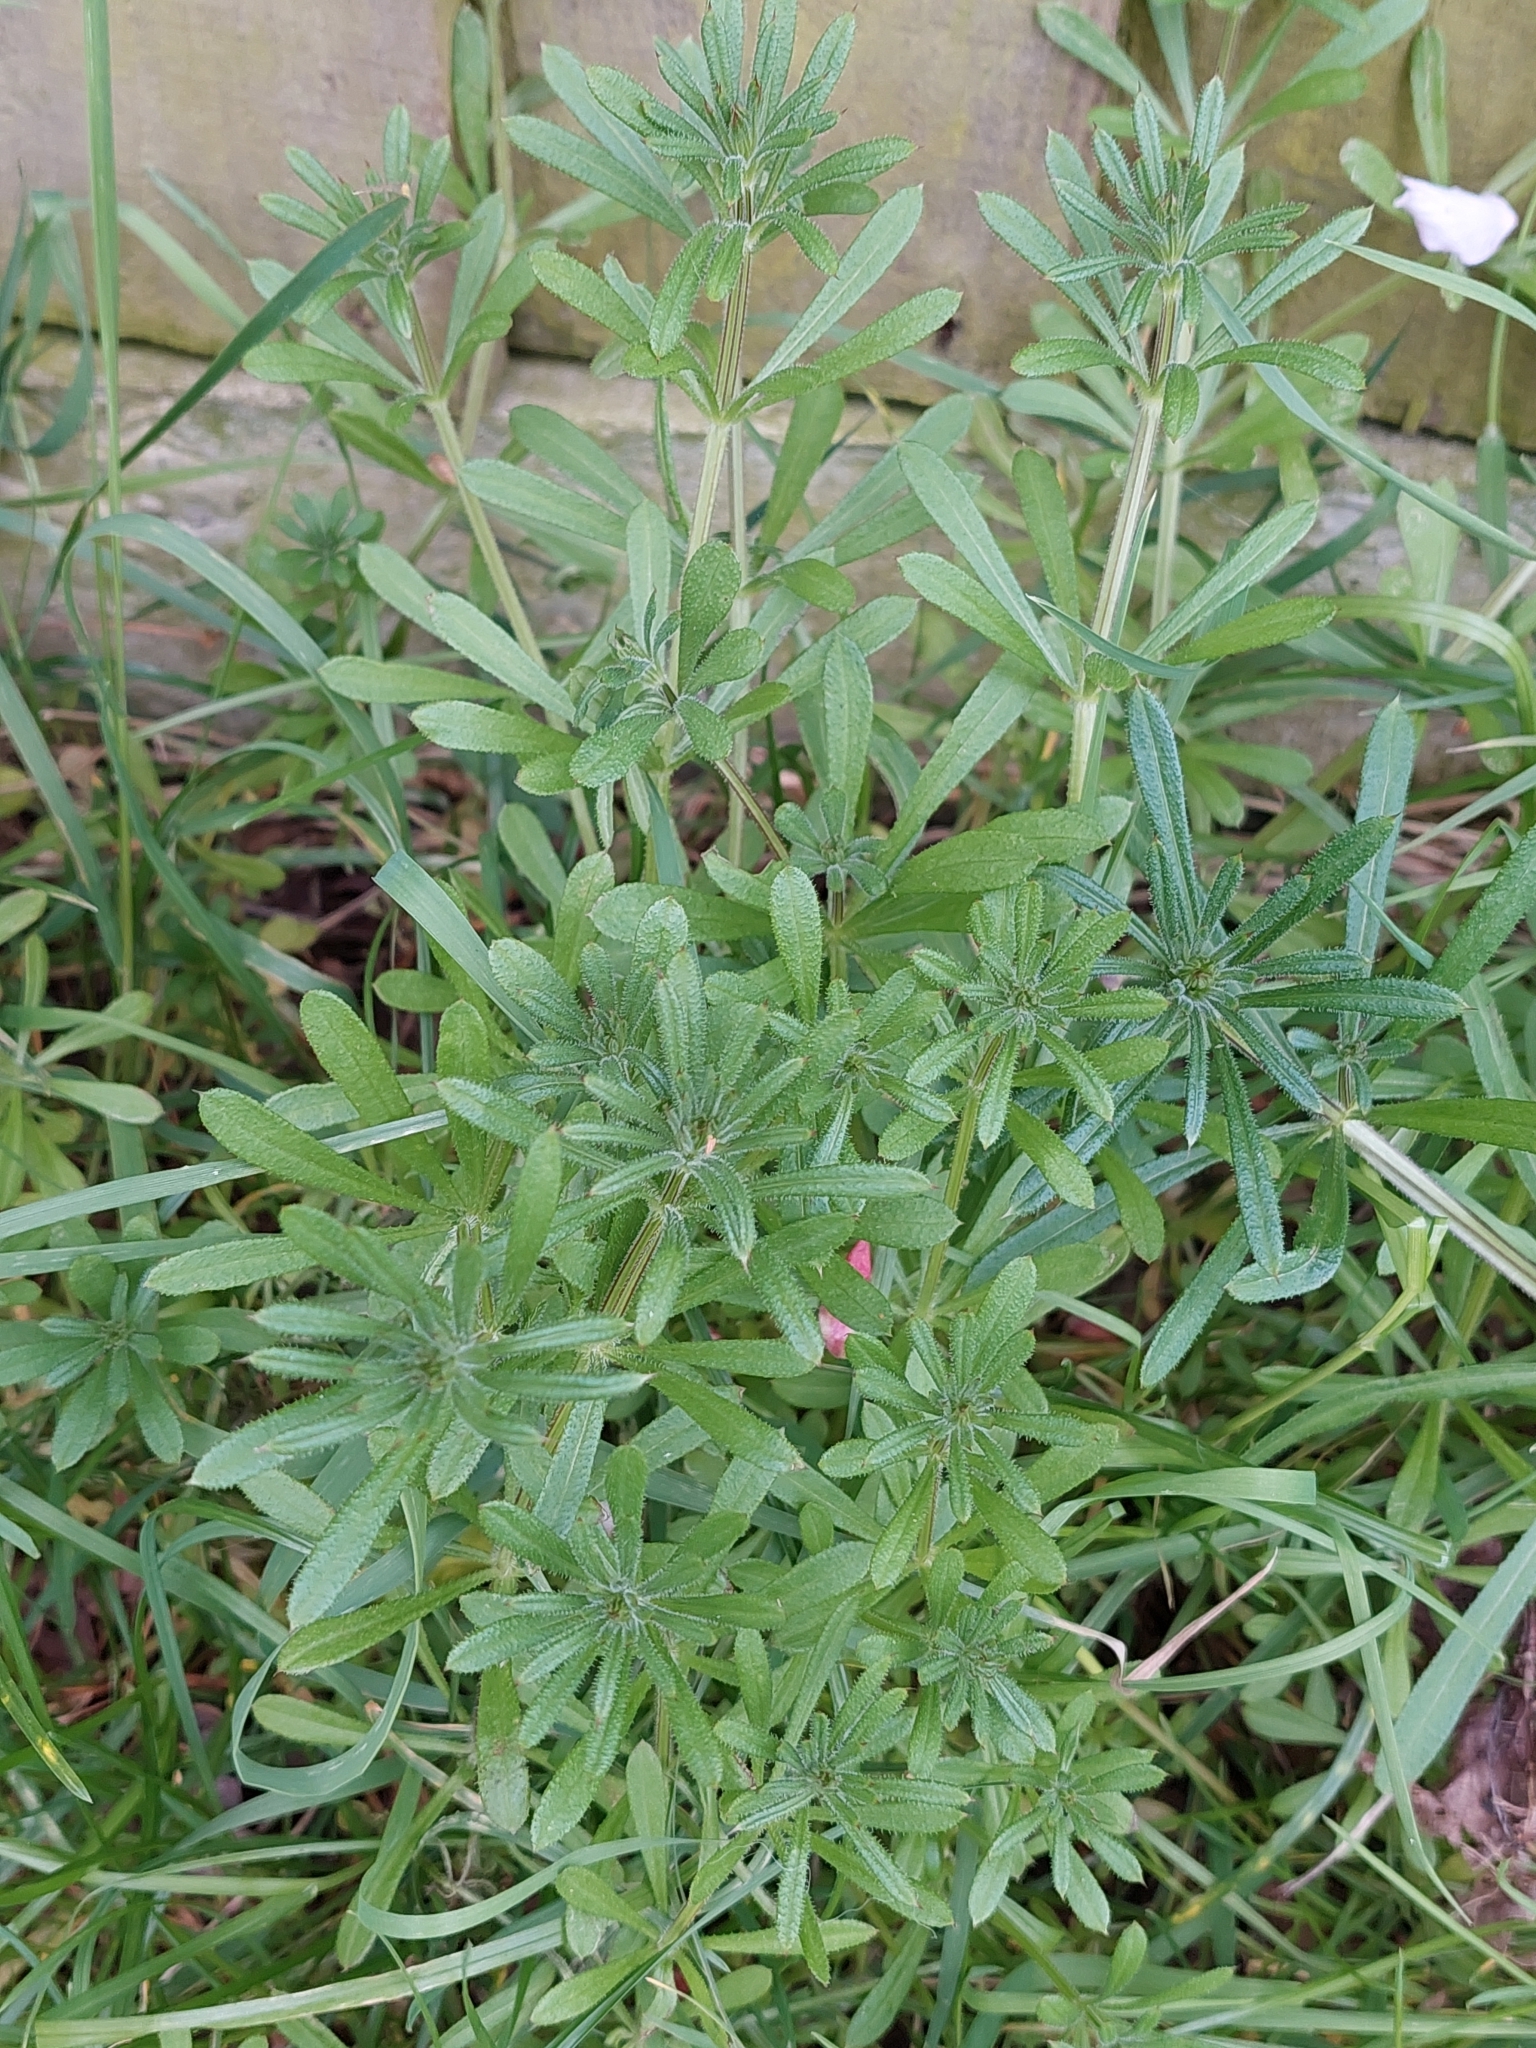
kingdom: Plantae
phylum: Tracheophyta
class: Magnoliopsida
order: Gentianales
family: Rubiaceae
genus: Galium
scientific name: Galium aparine
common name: Cleavers
